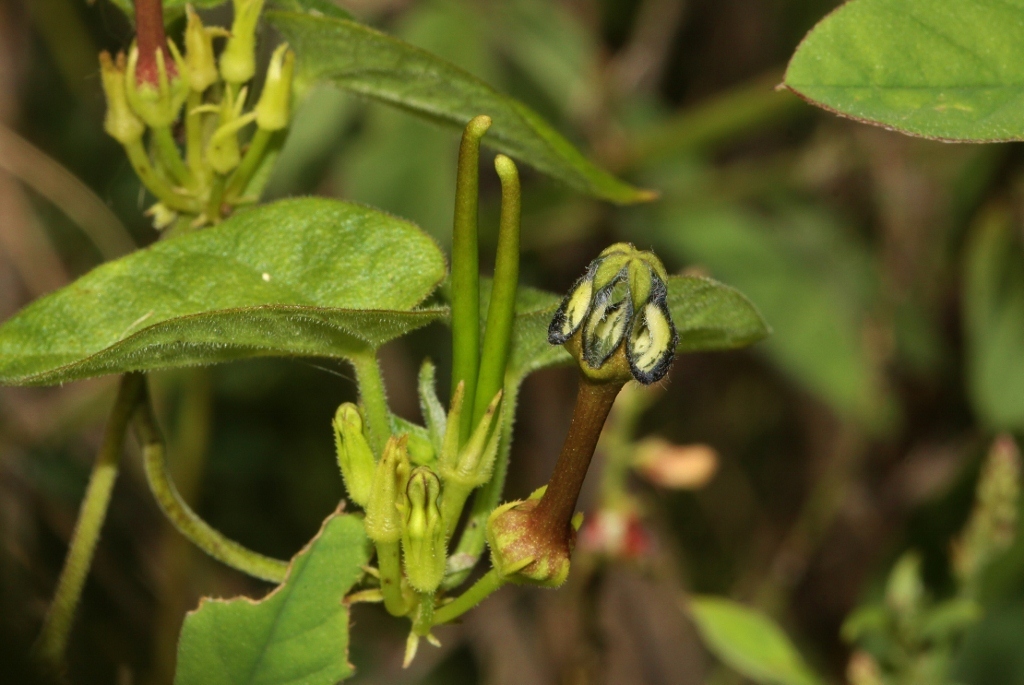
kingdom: Plantae
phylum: Tracheophyta
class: Magnoliopsida
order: Gentianales
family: Apocynaceae
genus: Ceropegia
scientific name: Ceropegia papillata
